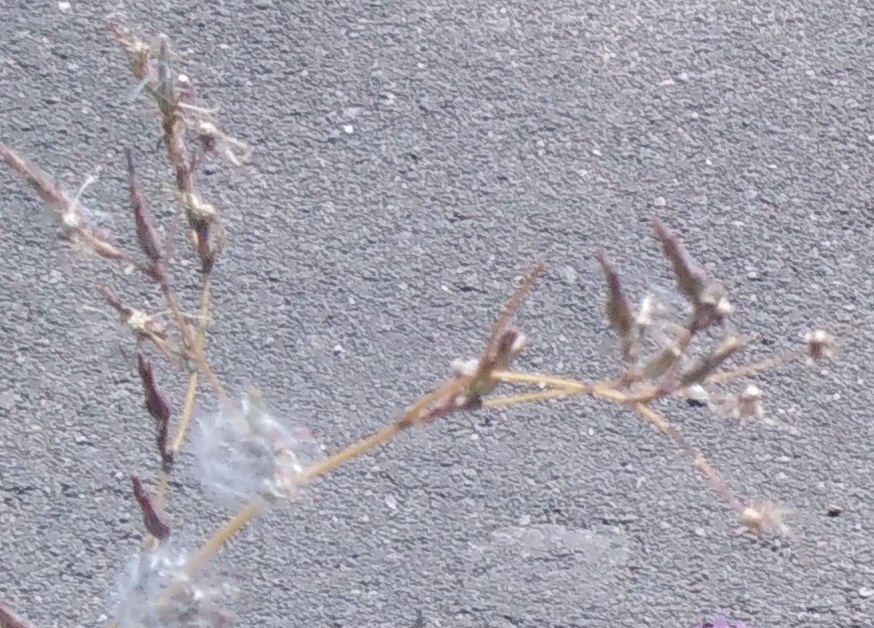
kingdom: Plantae
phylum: Tracheophyta
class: Magnoliopsida
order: Asterales
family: Asteraceae
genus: Lactuca
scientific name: Lactuca serriola
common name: Prickly lettuce
